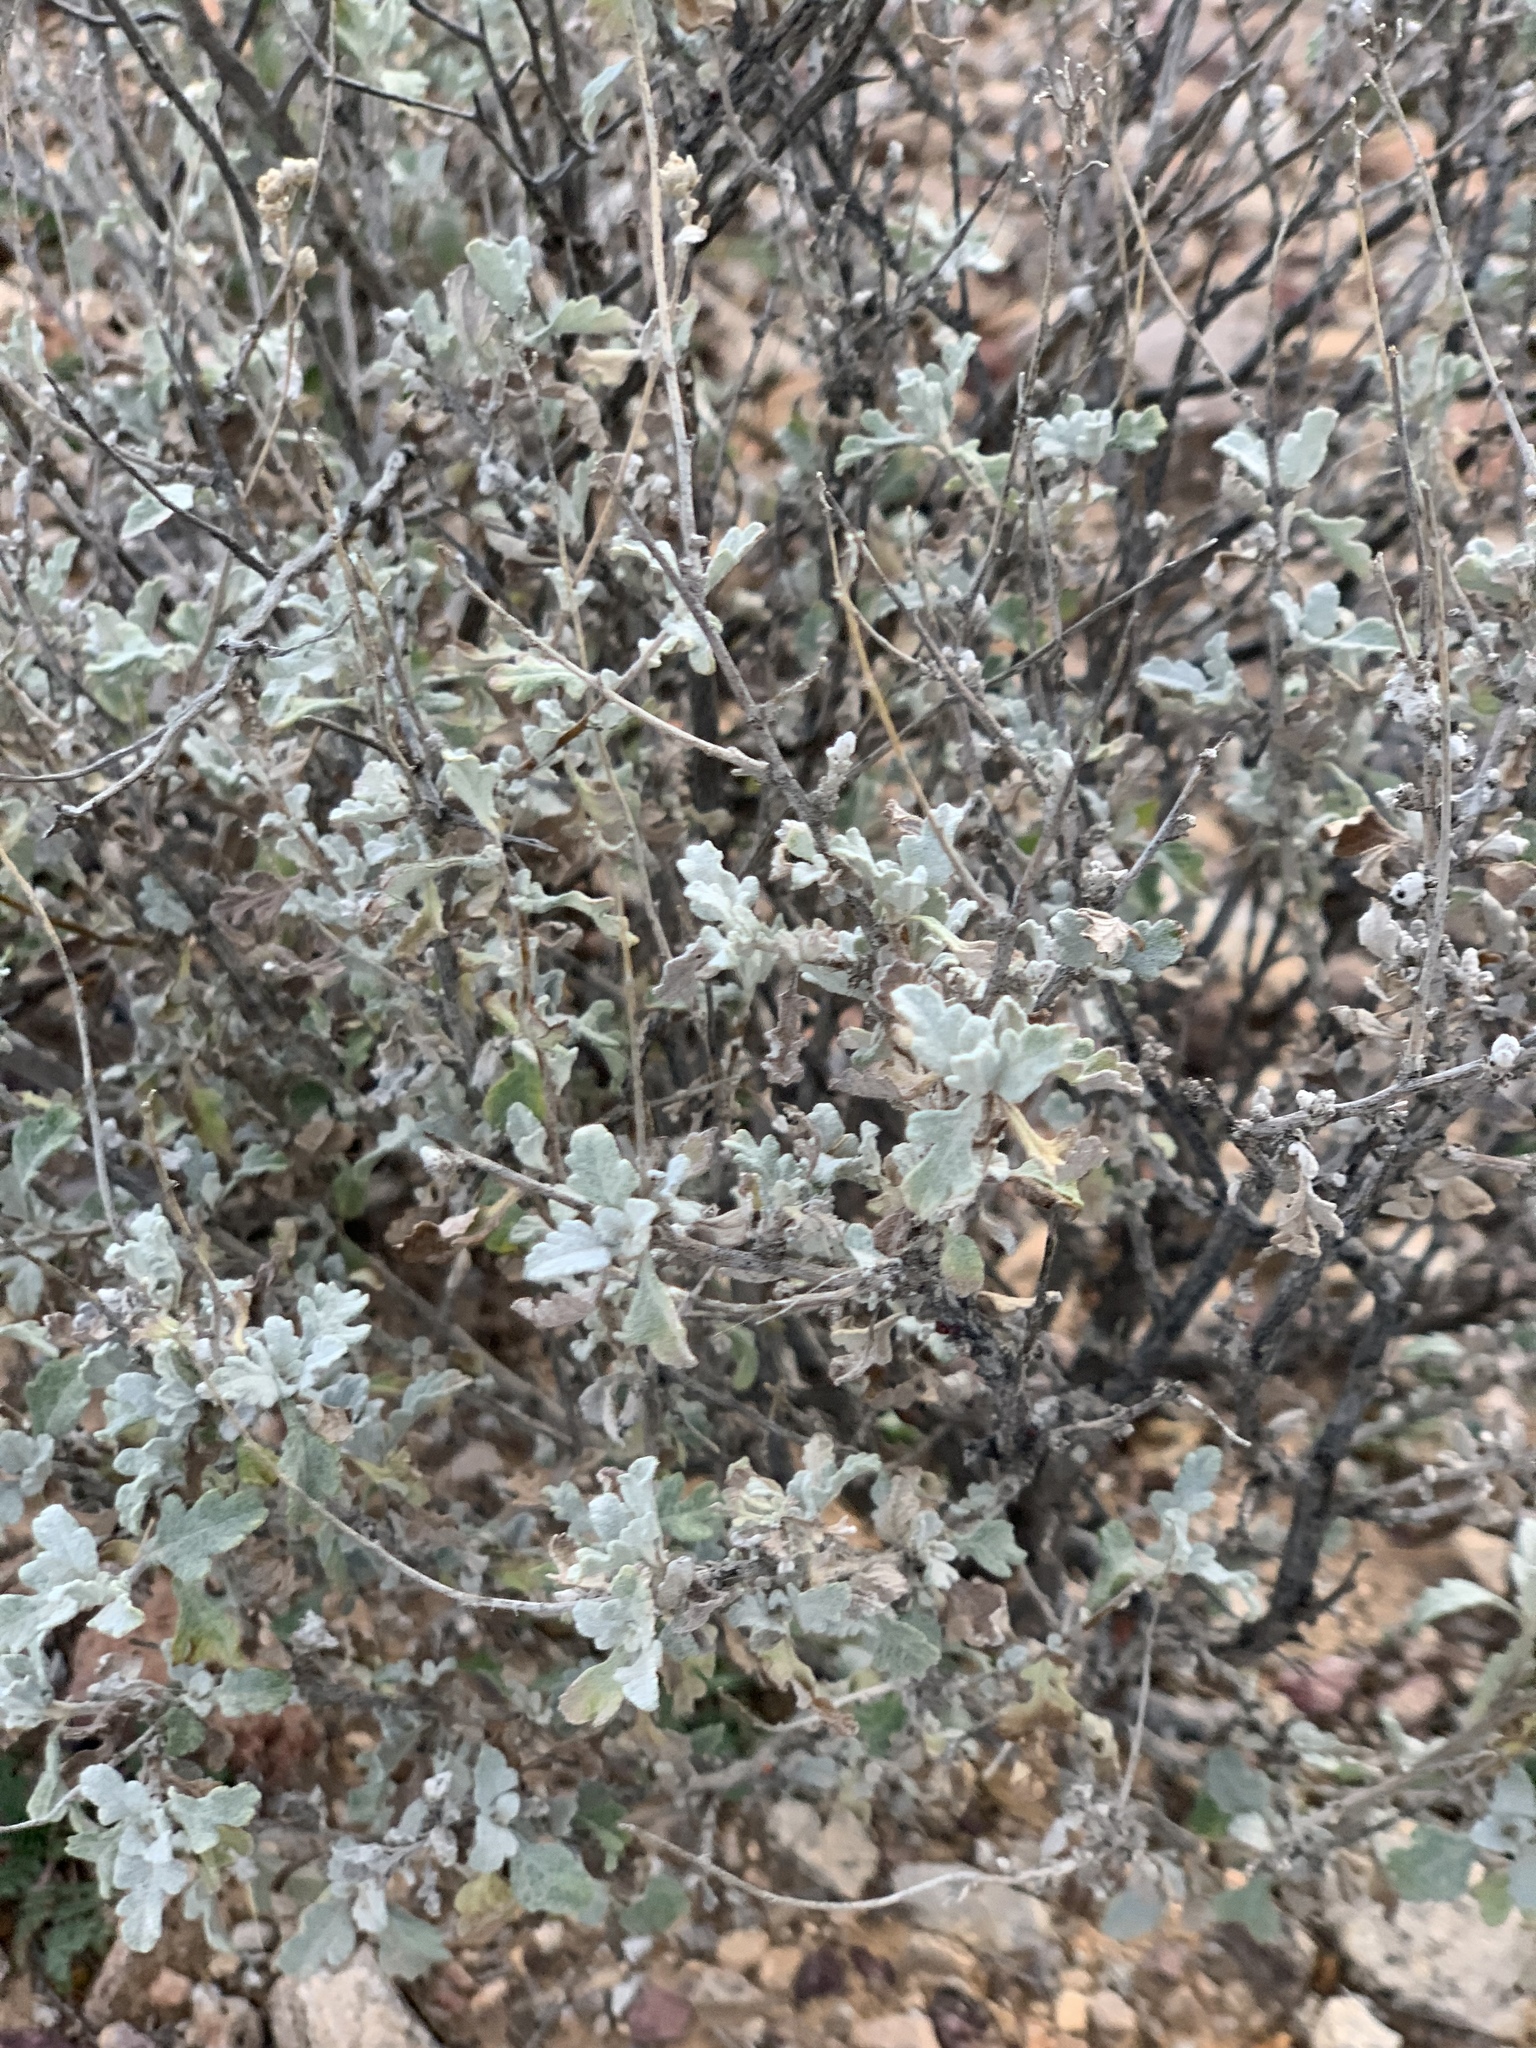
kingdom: Plantae
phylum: Tracheophyta
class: Magnoliopsida
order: Asterales
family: Asteraceae
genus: Parthenium
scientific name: Parthenium incanum
